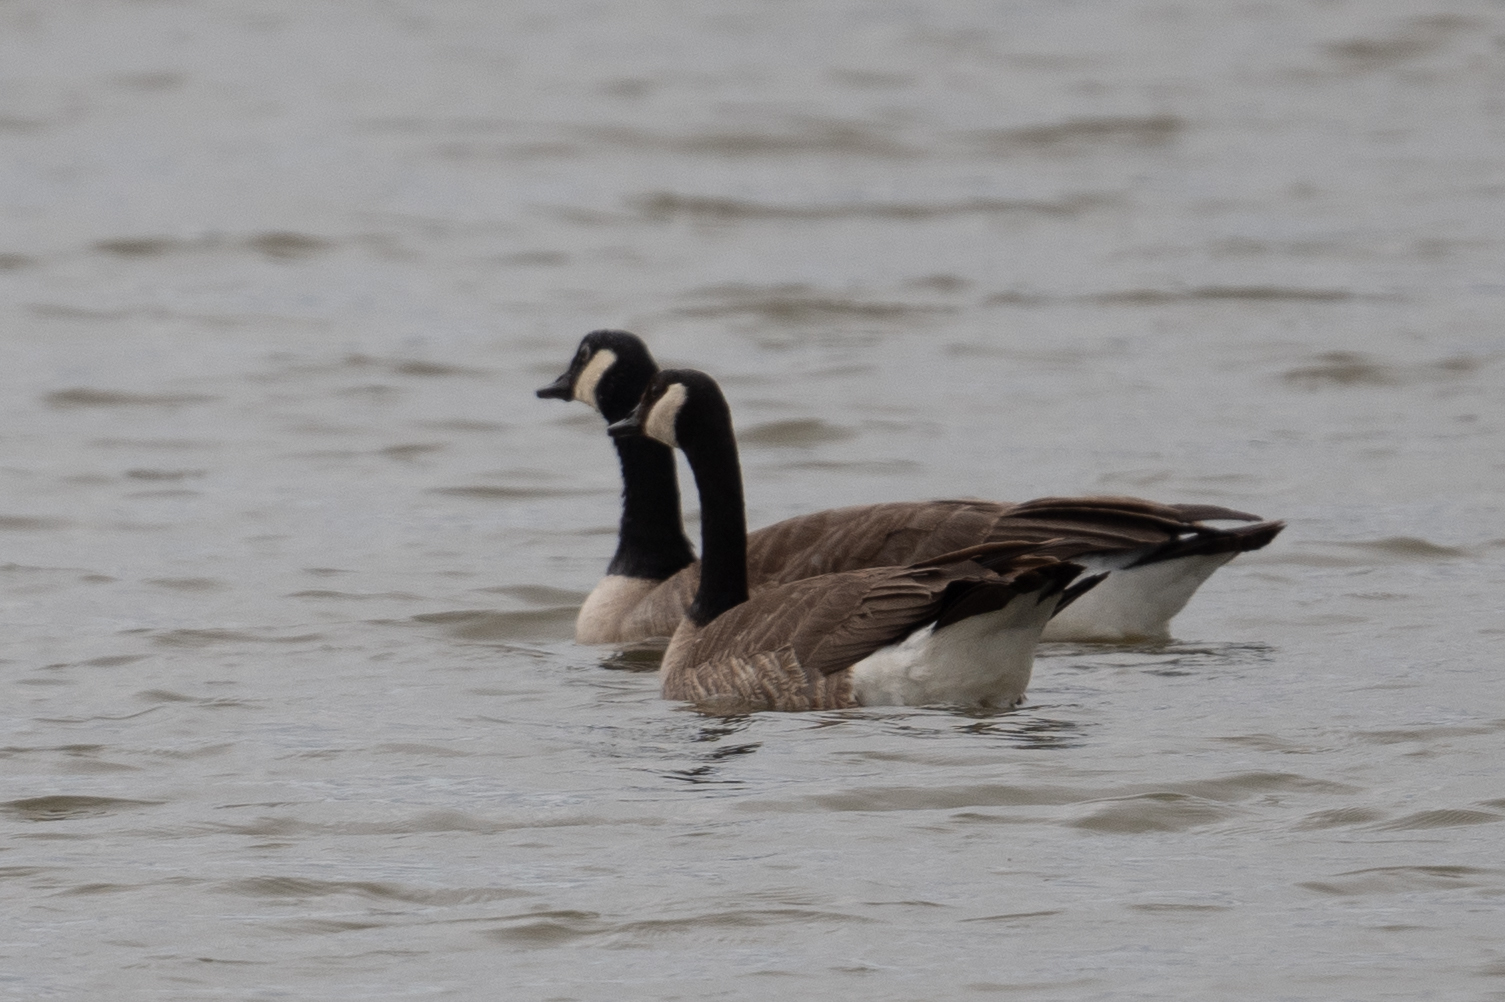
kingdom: Animalia
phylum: Chordata
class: Aves
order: Anseriformes
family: Anatidae
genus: Branta
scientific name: Branta canadensis
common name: Canada goose
